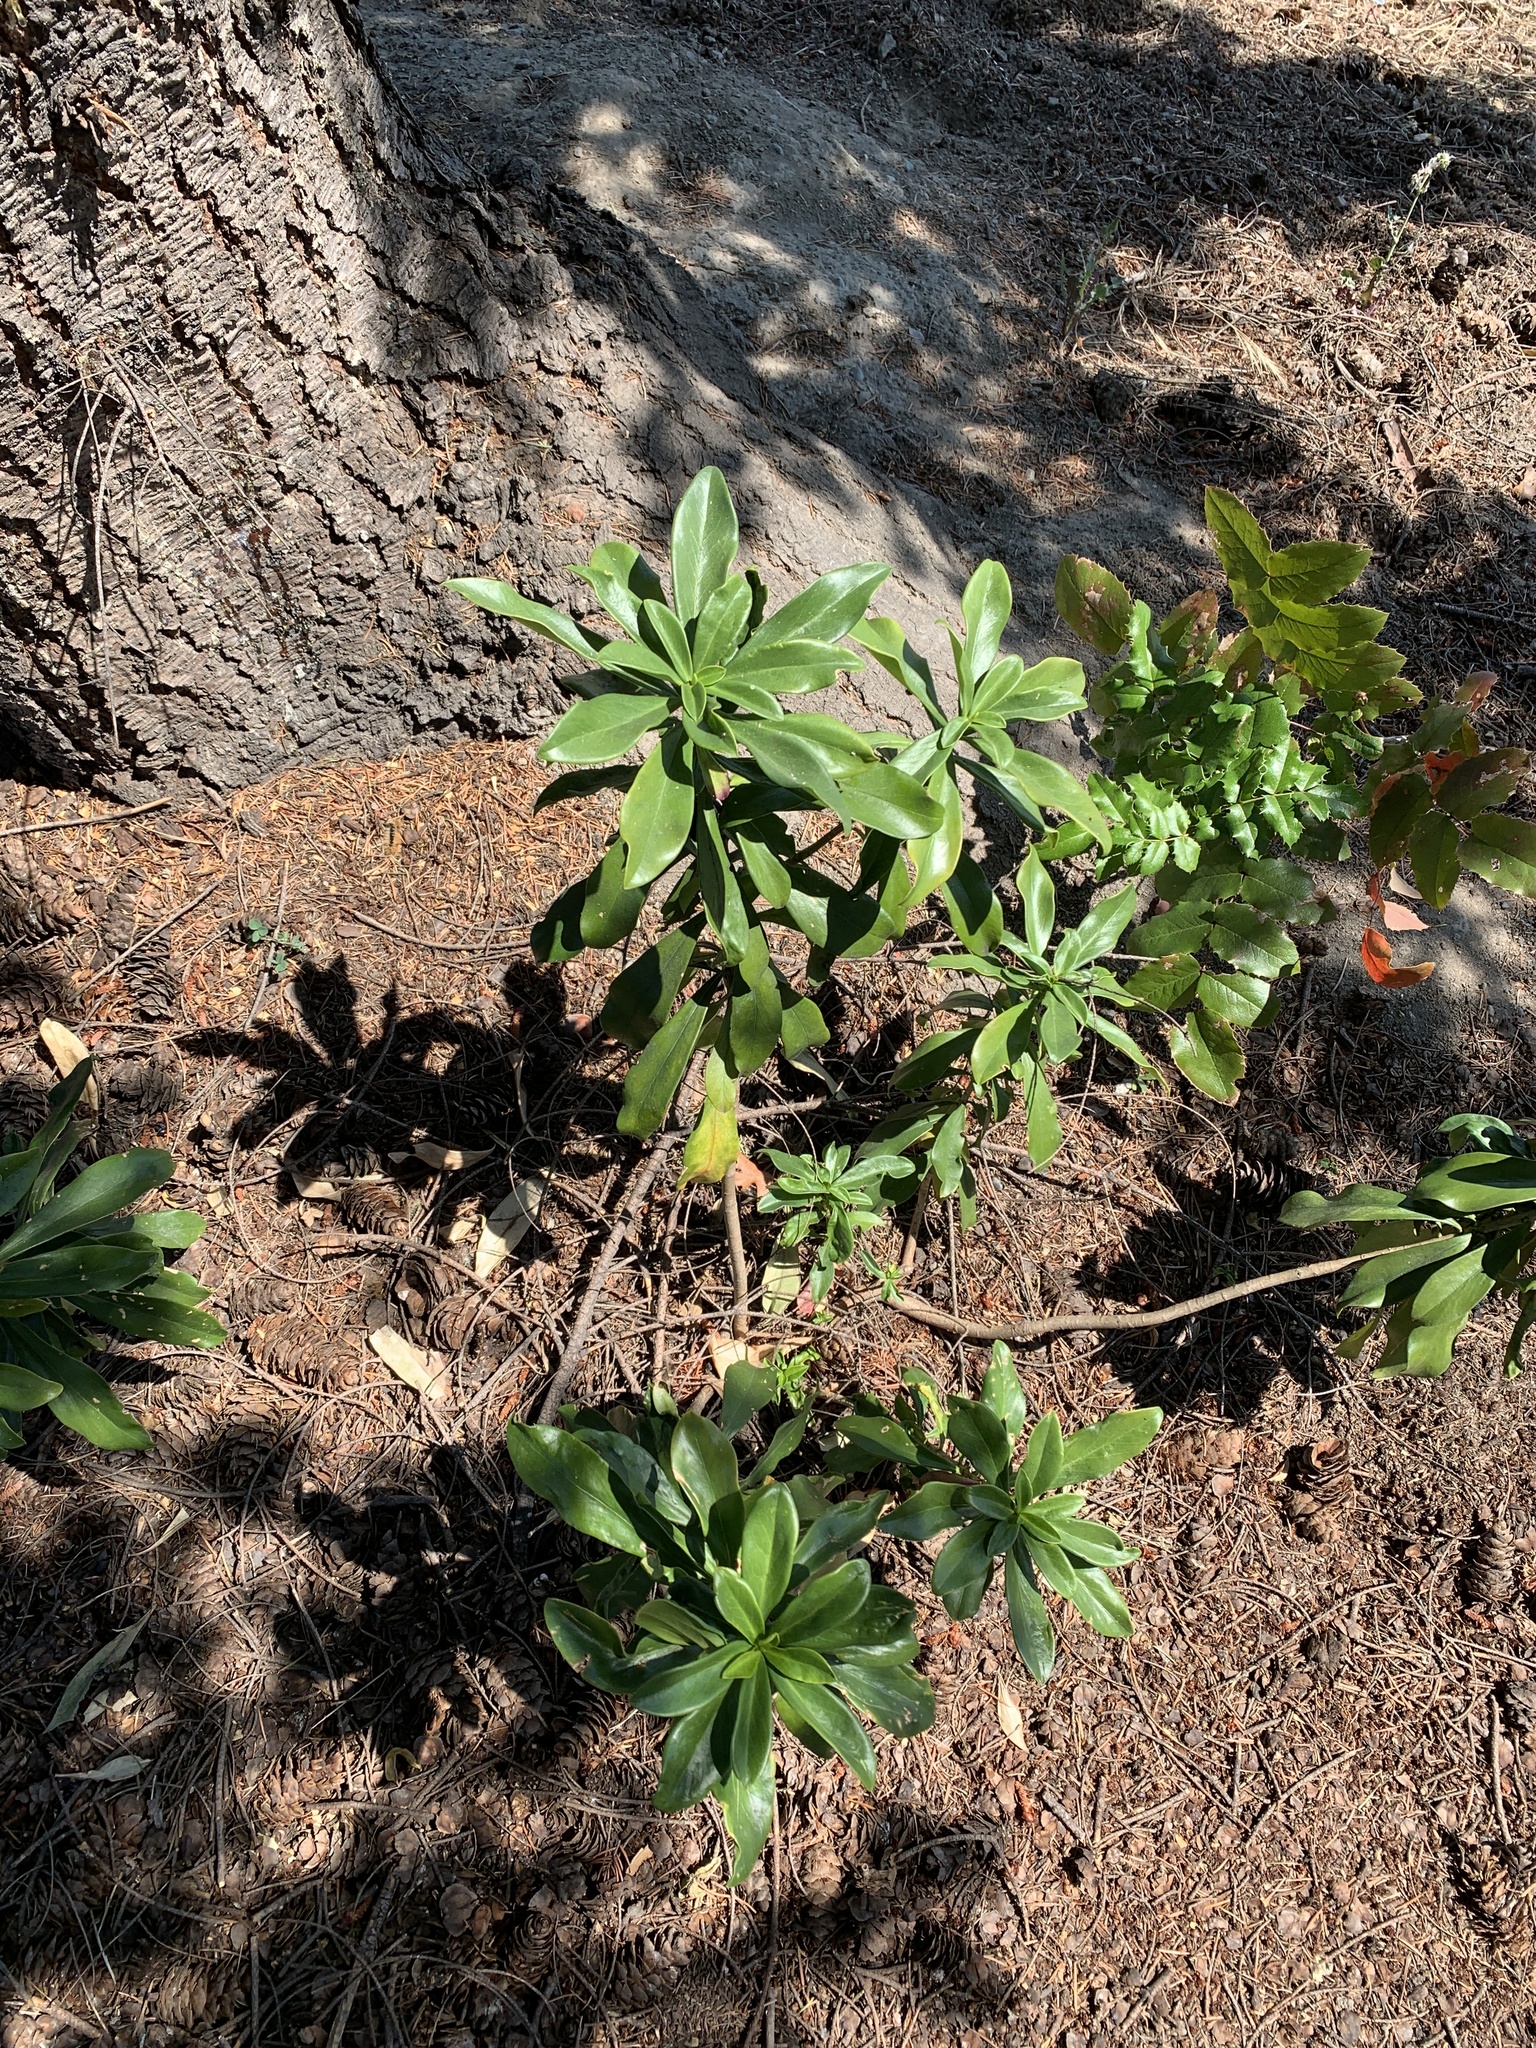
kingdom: Plantae
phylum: Tracheophyta
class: Magnoliopsida
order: Malvales
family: Thymelaeaceae
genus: Daphne
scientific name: Daphne laureola
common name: Spurge-laurel
